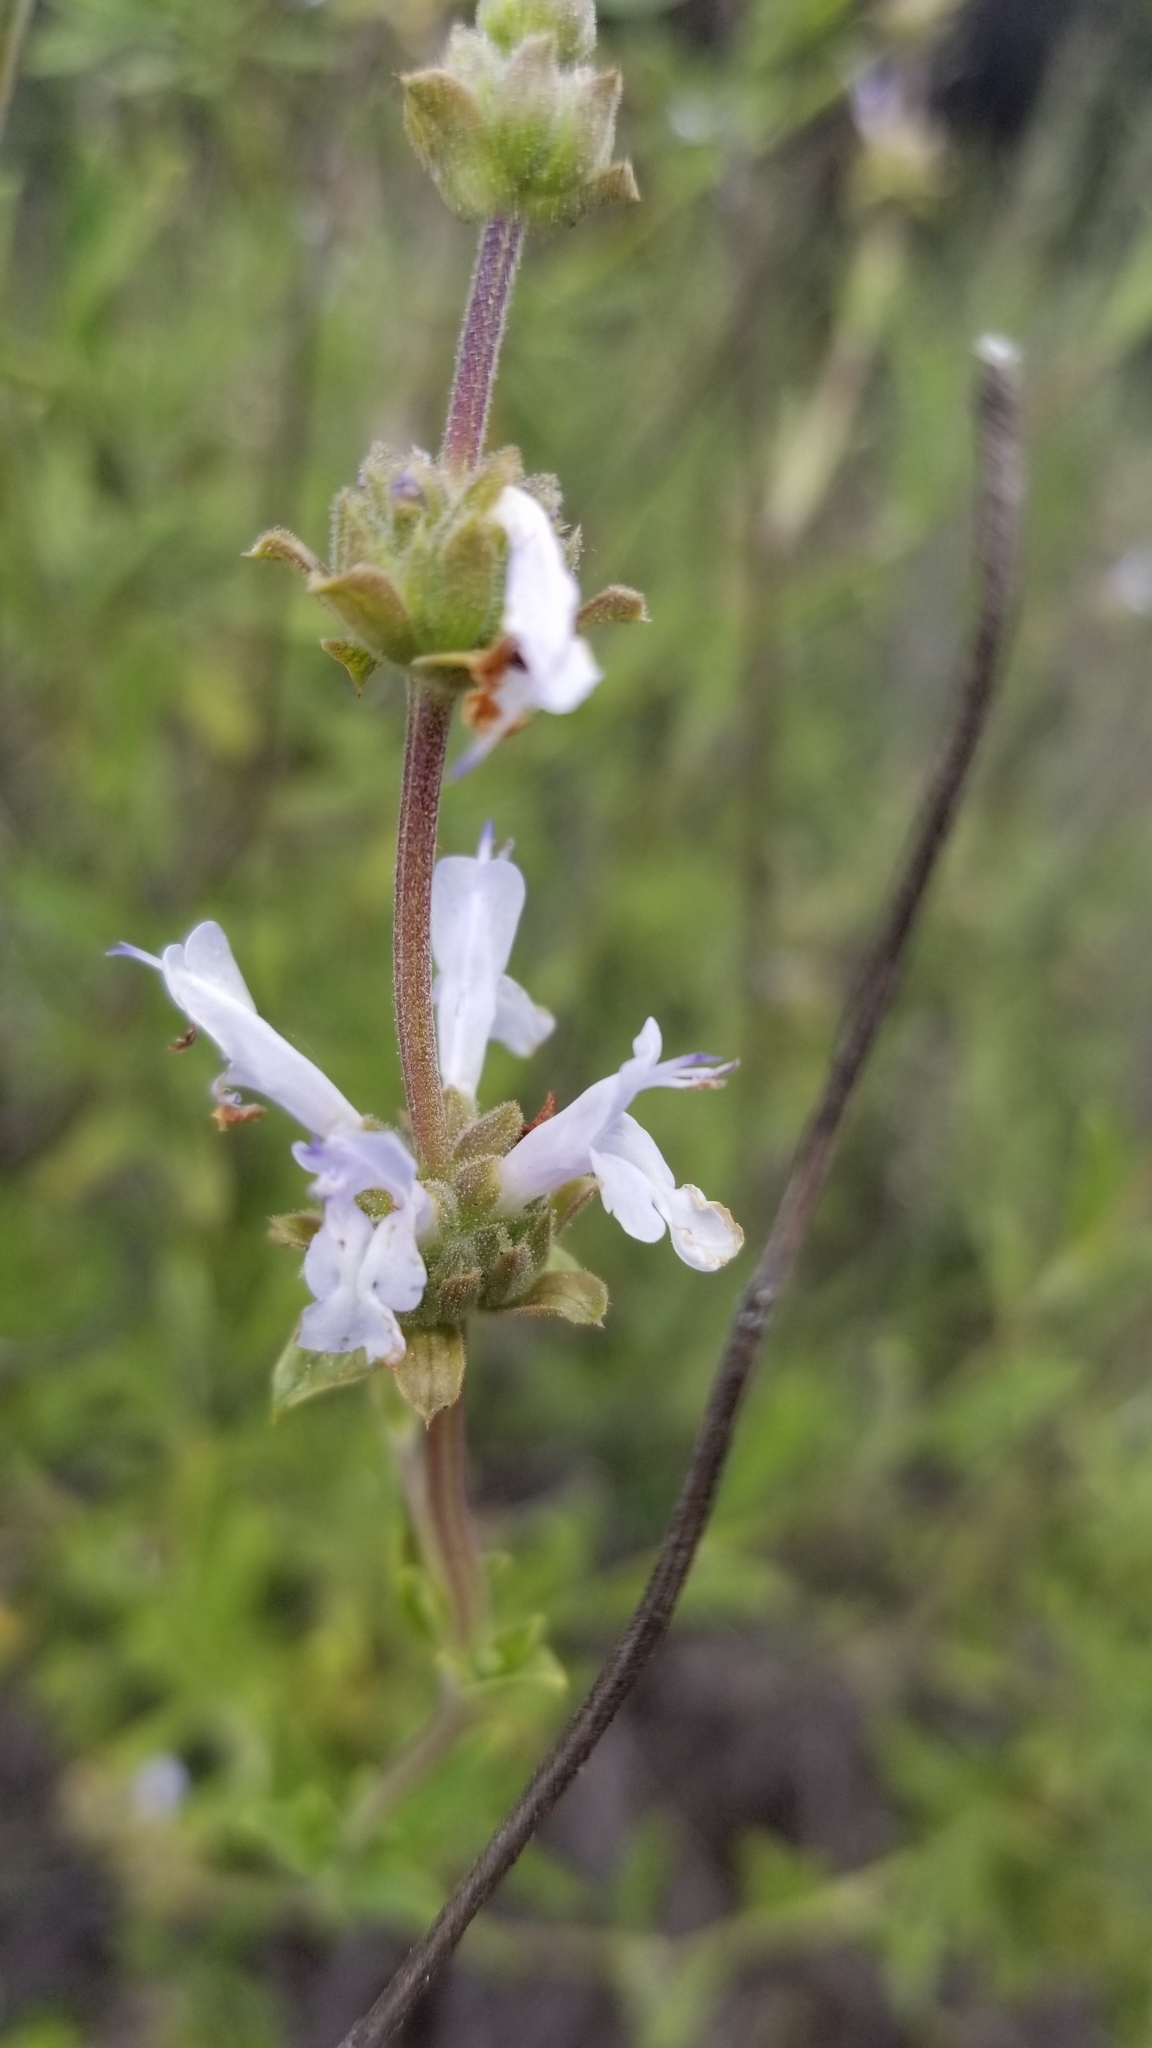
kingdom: Plantae
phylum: Tracheophyta
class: Magnoliopsida
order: Lamiales
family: Lamiaceae
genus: Salvia
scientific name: Salvia mellifera
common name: Black sage
